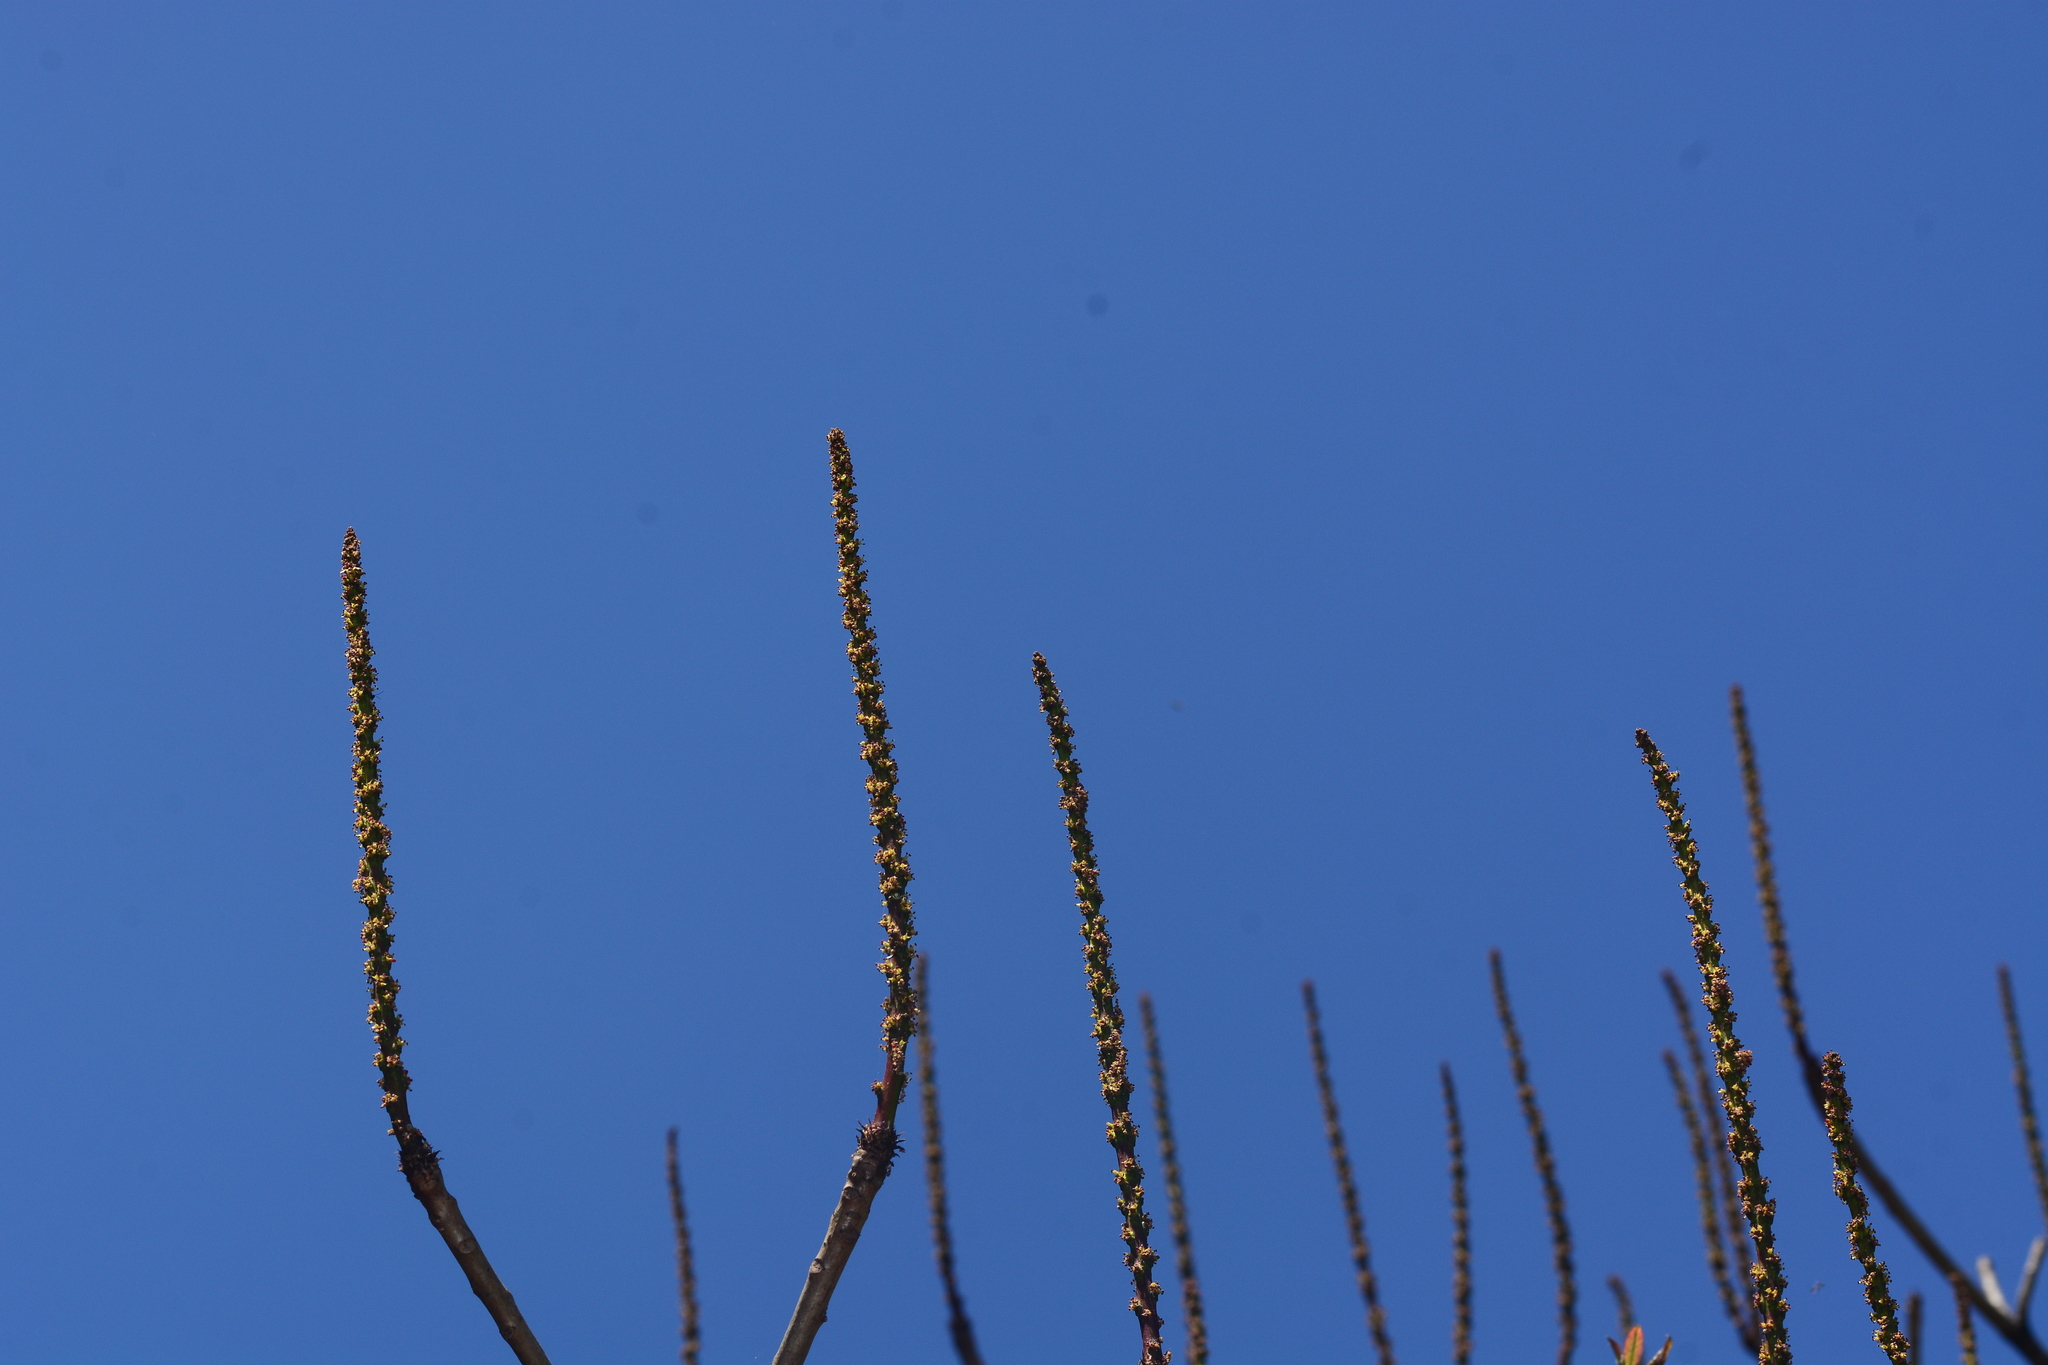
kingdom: Plantae
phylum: Tracheophyta
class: Magnoliopsida
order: Malpighiales
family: Euphorbiaceae
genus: Falconeria
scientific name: Falconeria insignis
